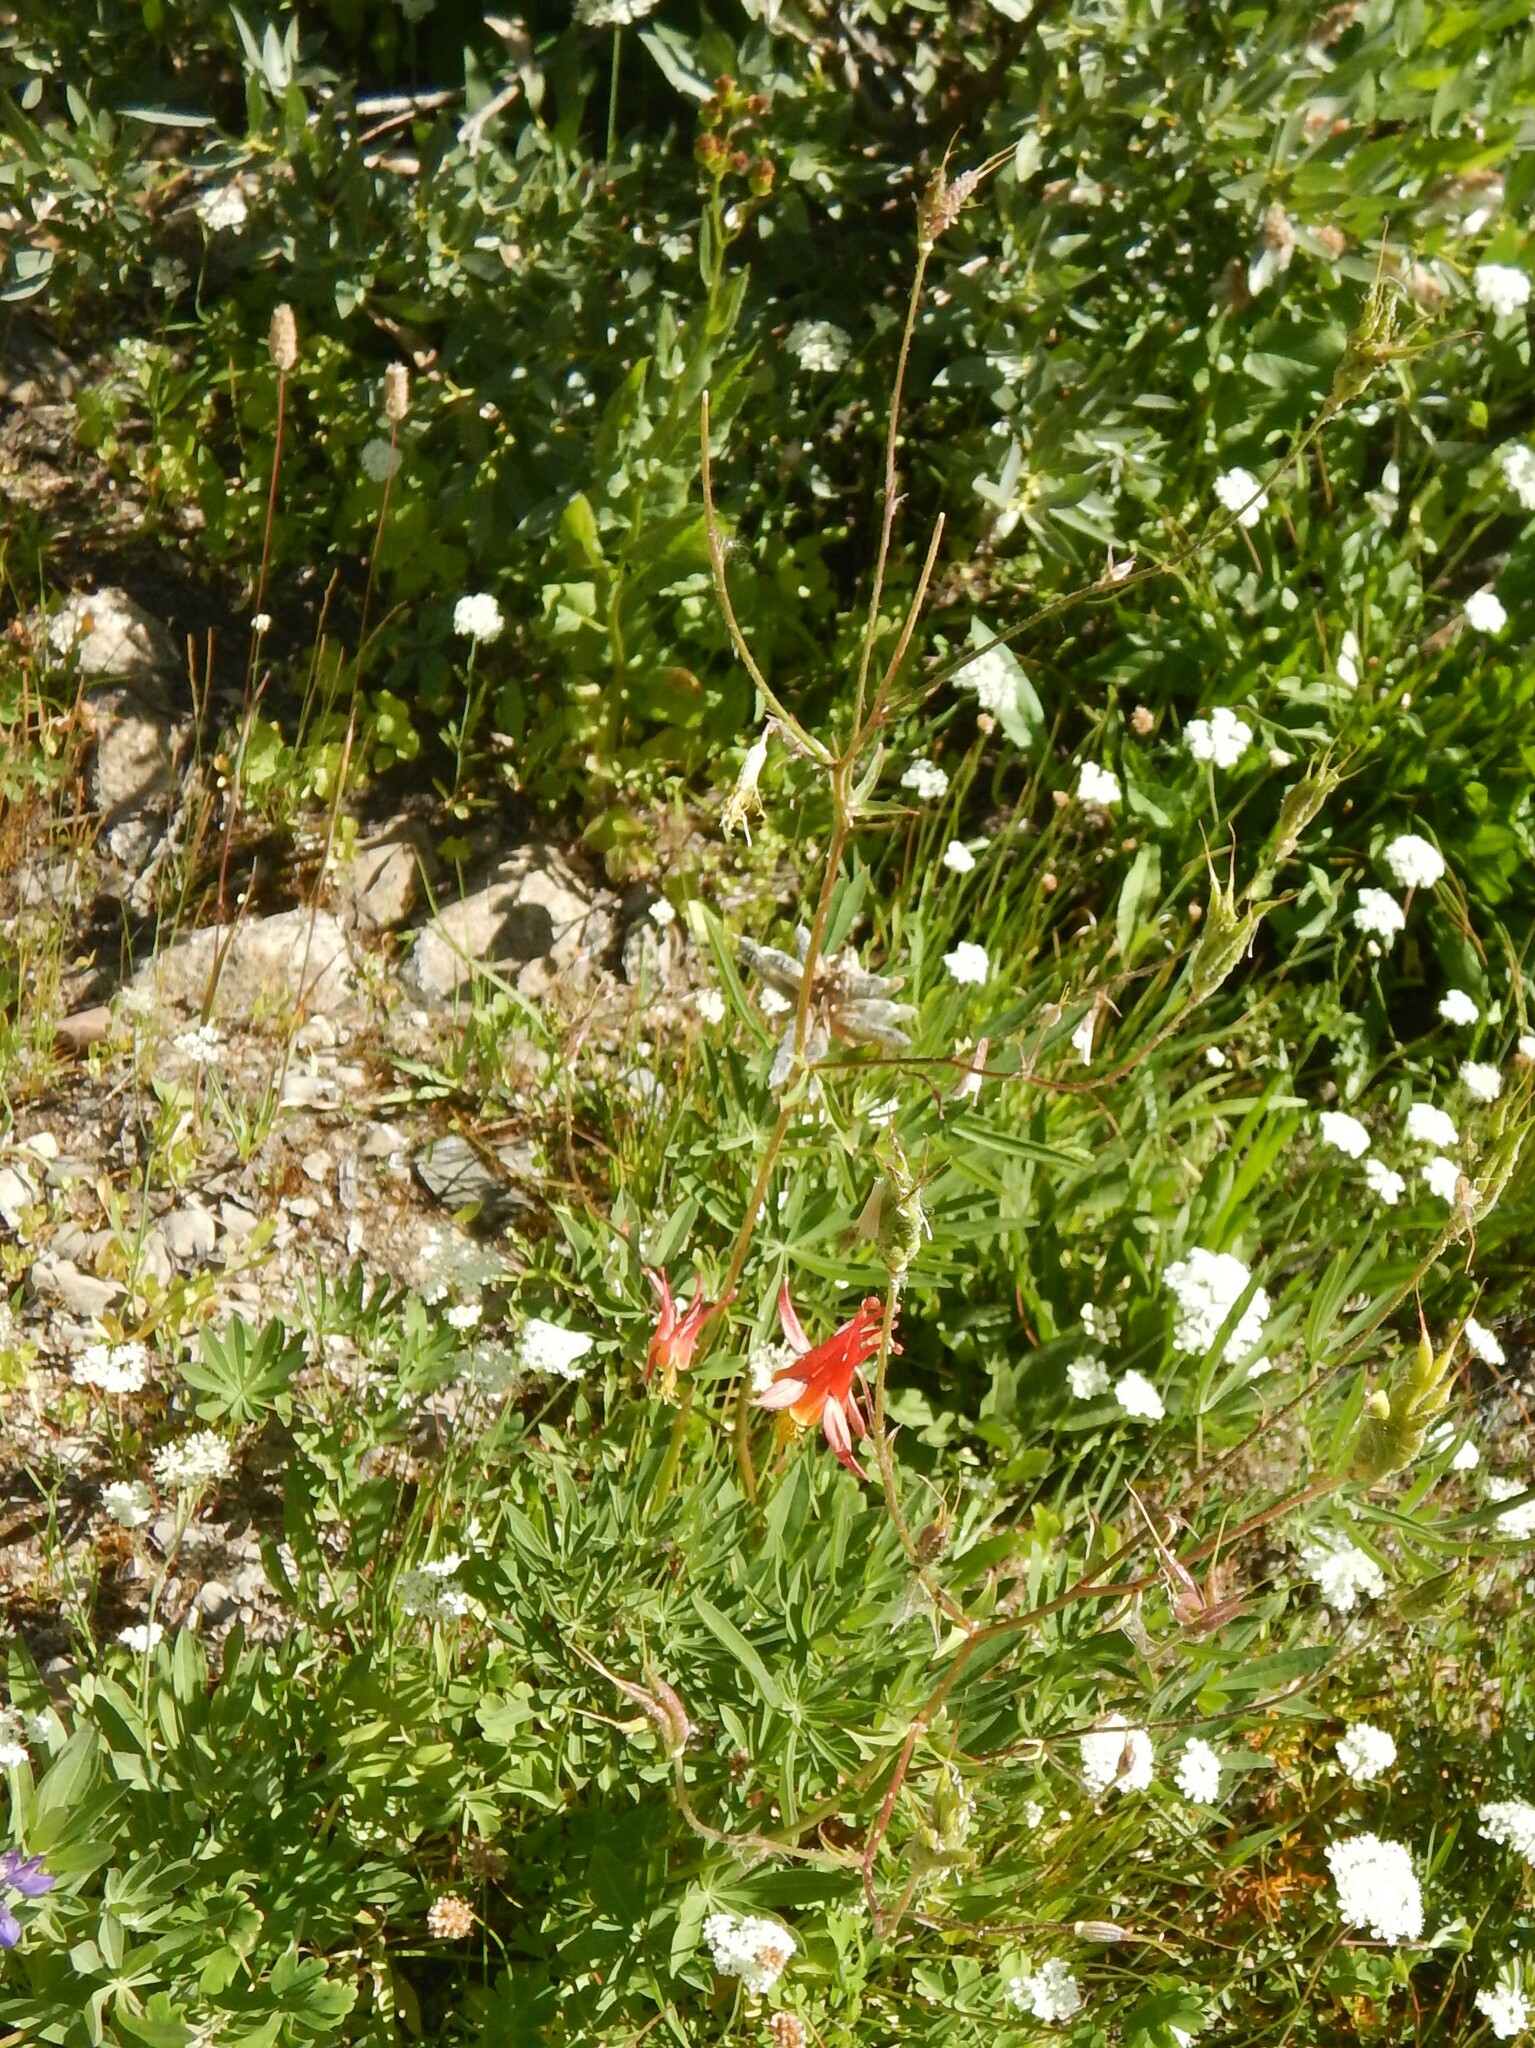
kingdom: Plantae
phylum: Tracheophyta
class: Magnoliopsida
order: Ranunculales
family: Ranunculaceae
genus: Aquilegia
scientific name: Aquilegia formosa
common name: Sitka columbine
